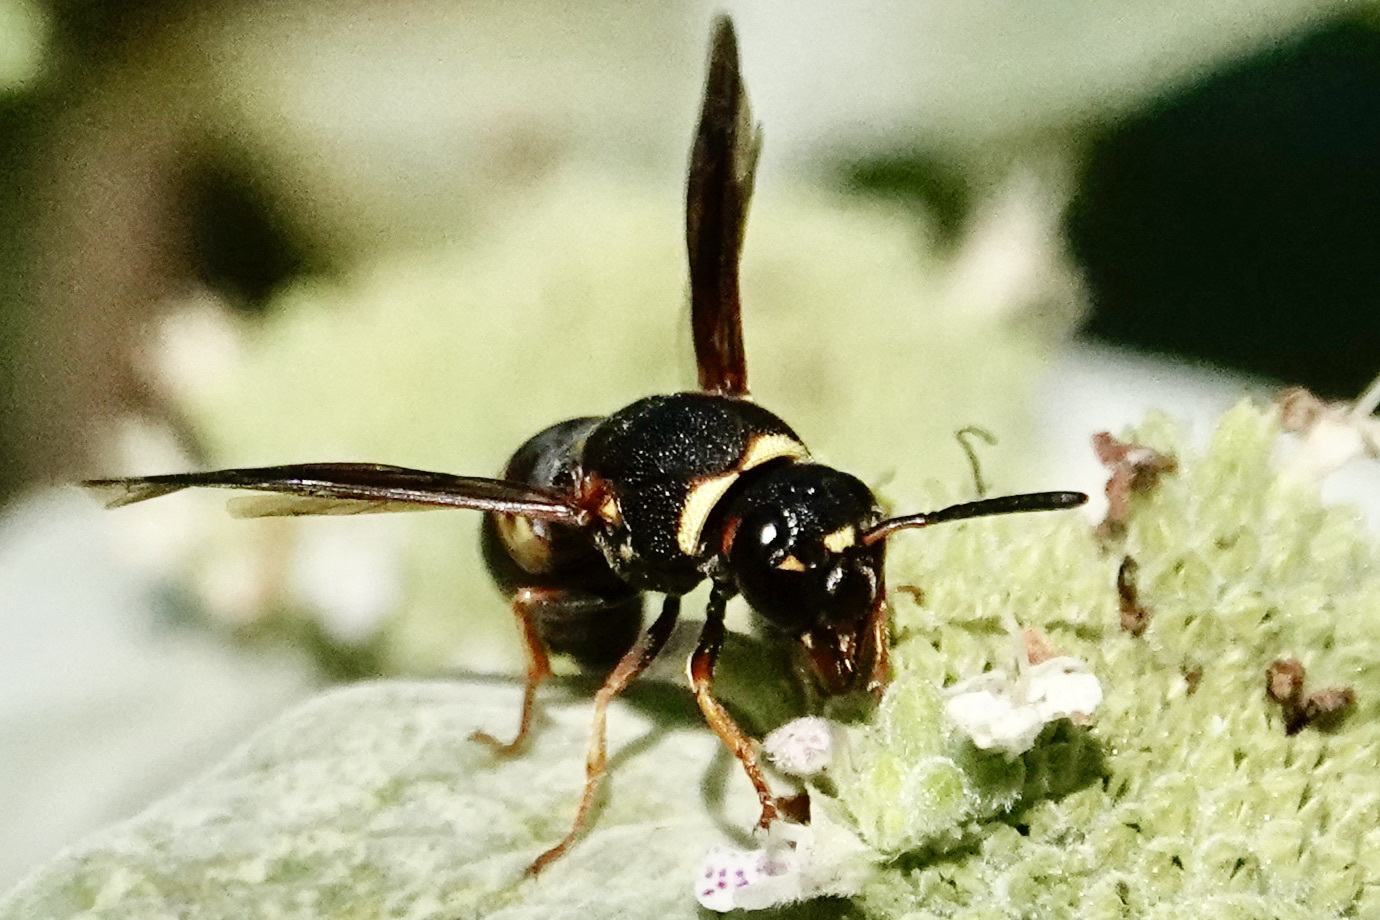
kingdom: Animalia
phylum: Arthropoda
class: Insecta
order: Hymenoptera
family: Eumenidae
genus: Euodynerus
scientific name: Euodynerus hidalgo
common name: Wasp
